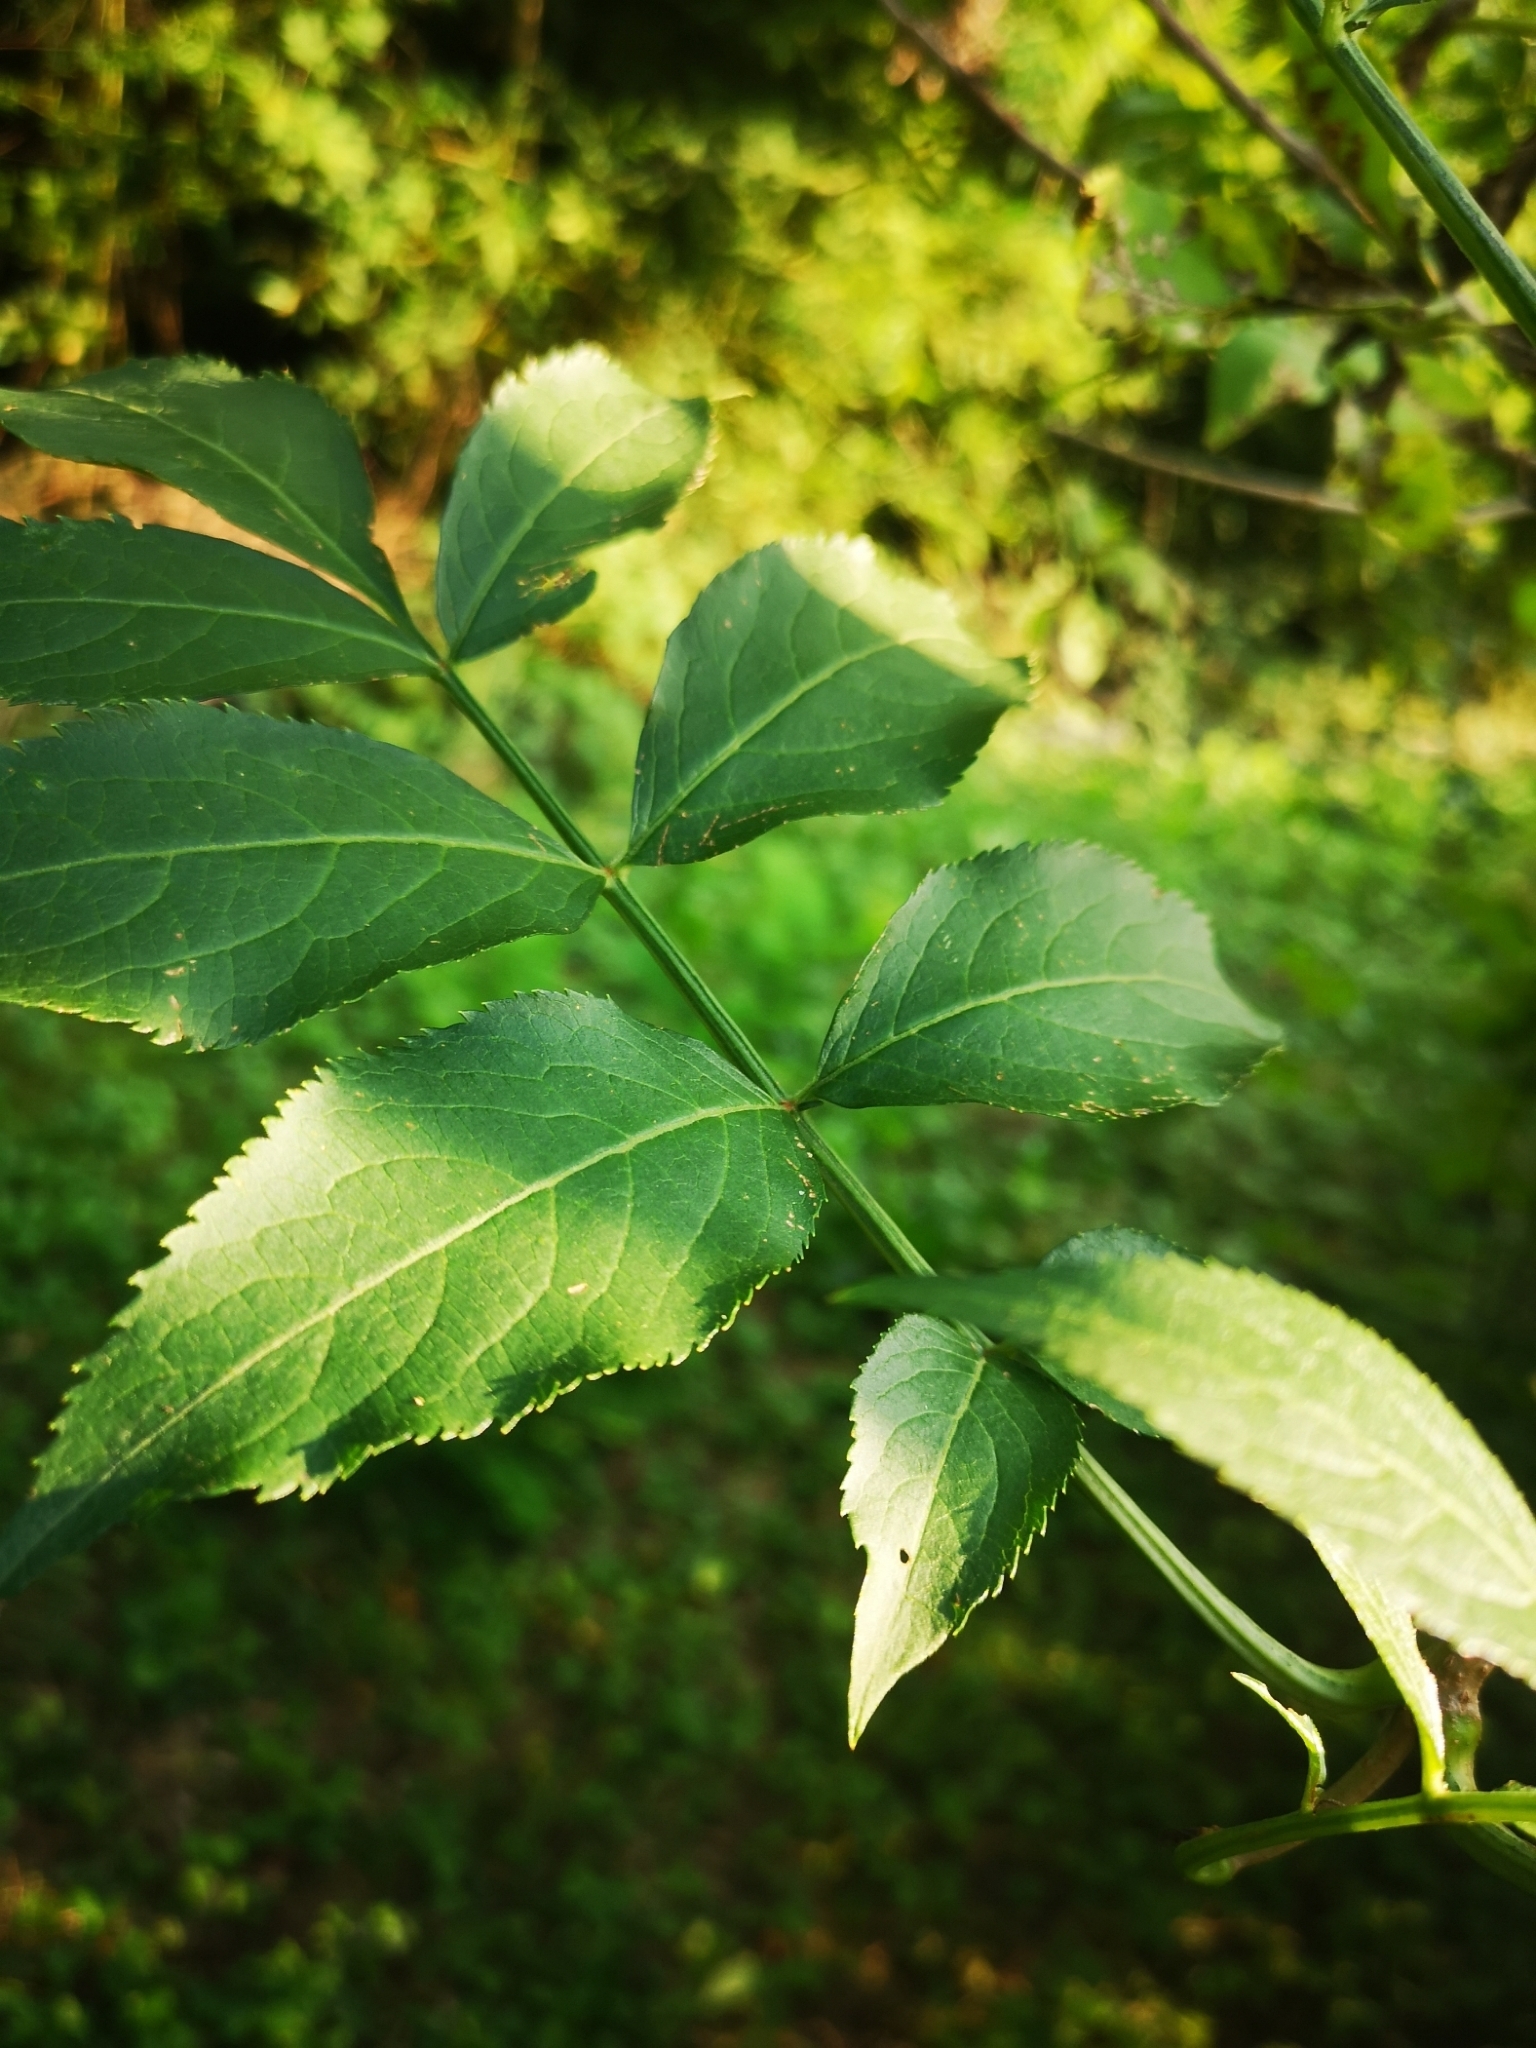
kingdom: Plantae
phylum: Tracheophyta
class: Magnoliopsida
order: Dipsacales
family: Viburnaceae
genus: Sambucus
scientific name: Sambucus nigra
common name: Elder
